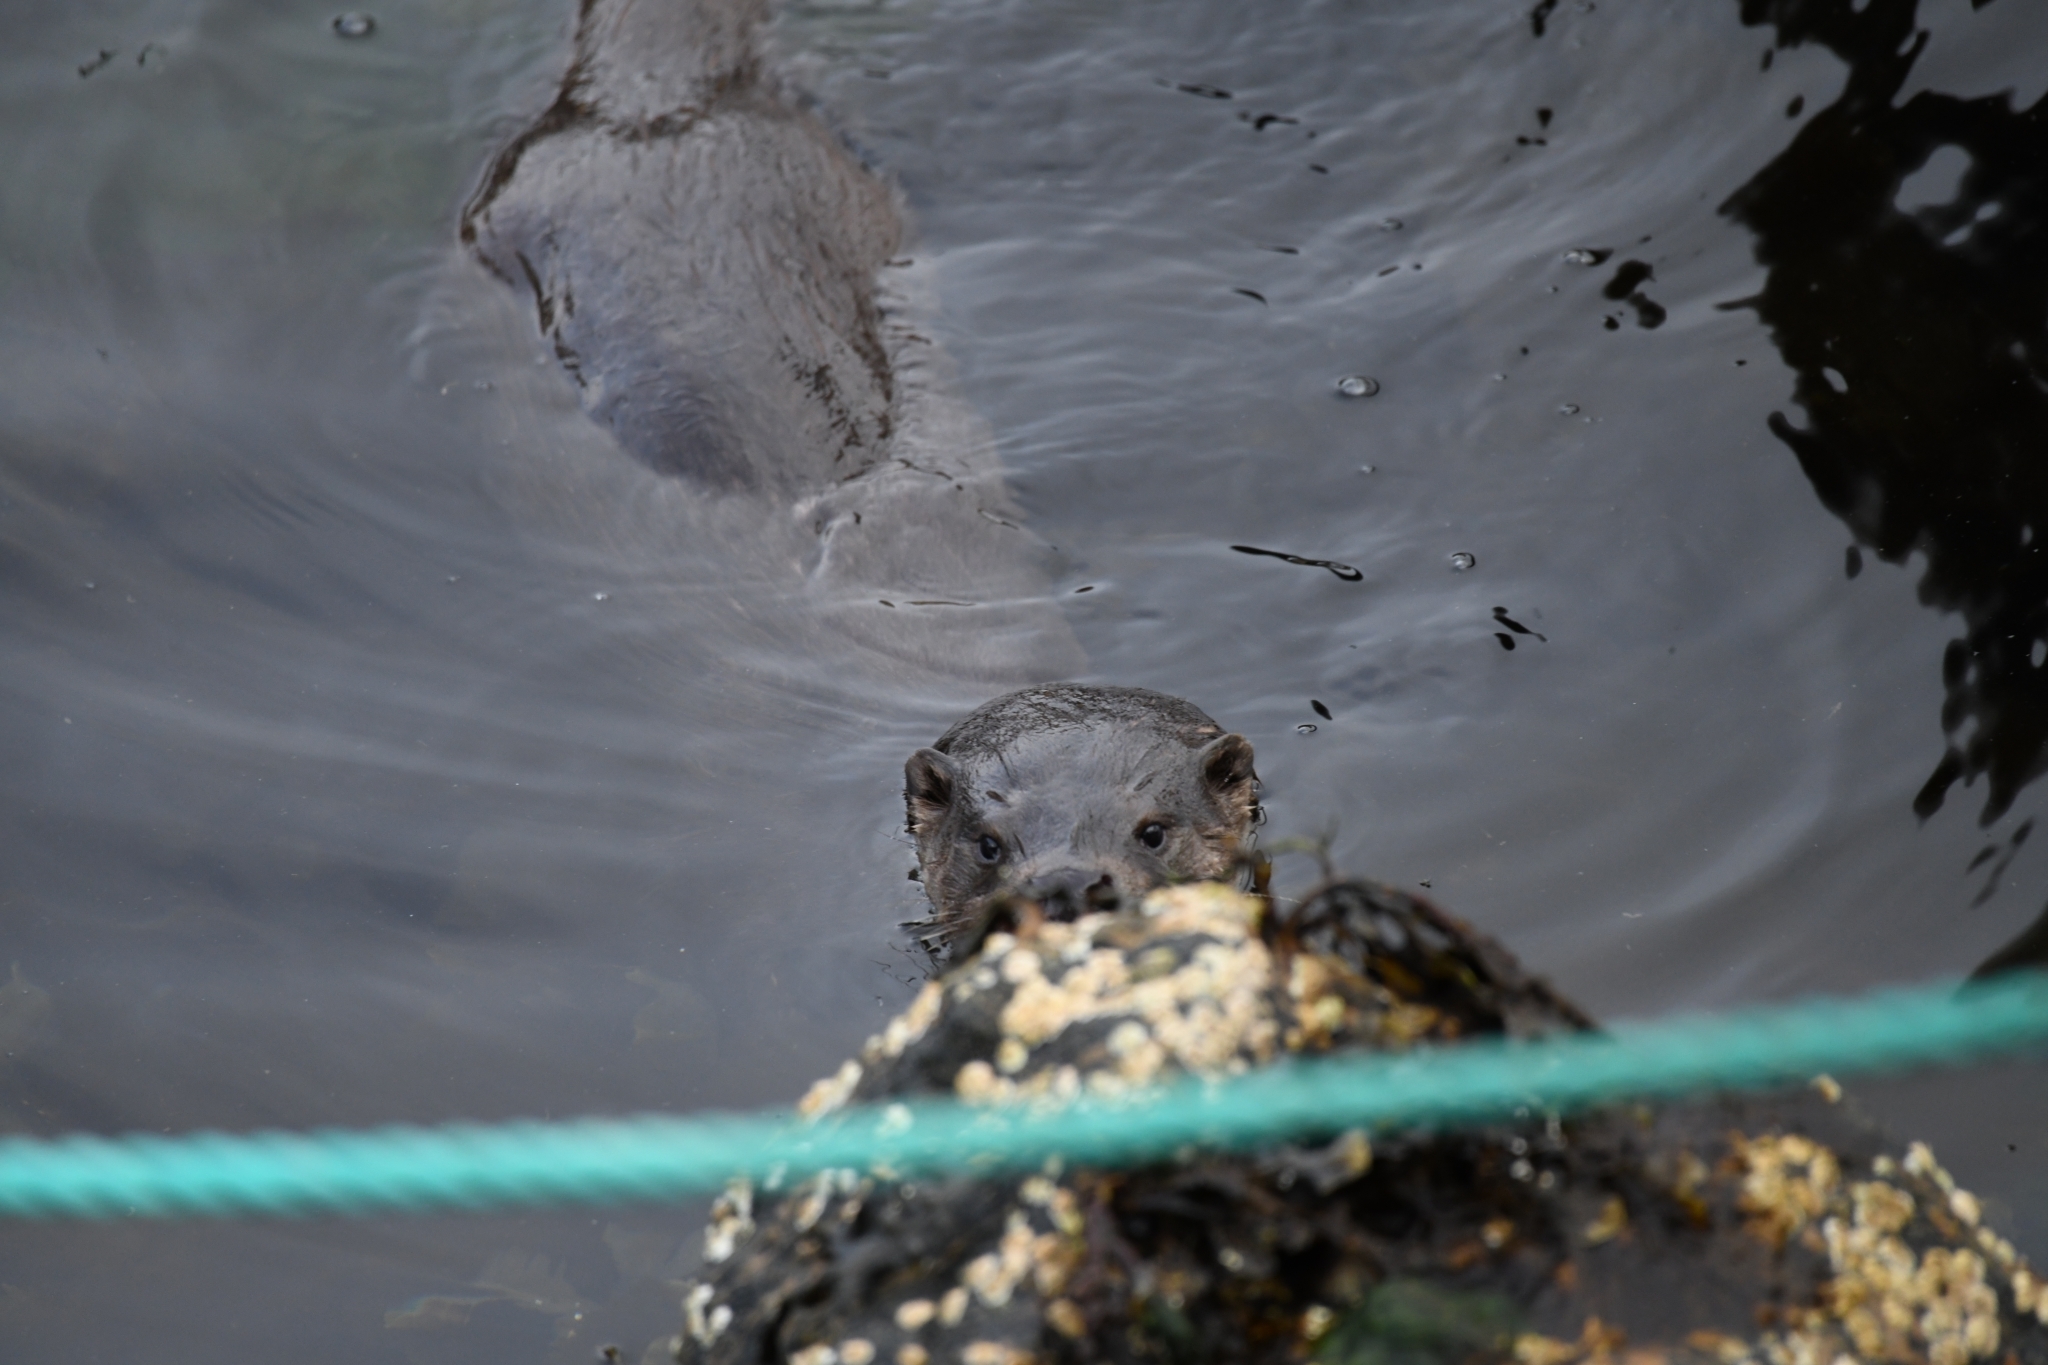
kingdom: Animalia
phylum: Chordata
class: Mammalia
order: Carnivora
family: Mustelidae
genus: Lutra
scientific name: Lutra lutra
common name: European otter
